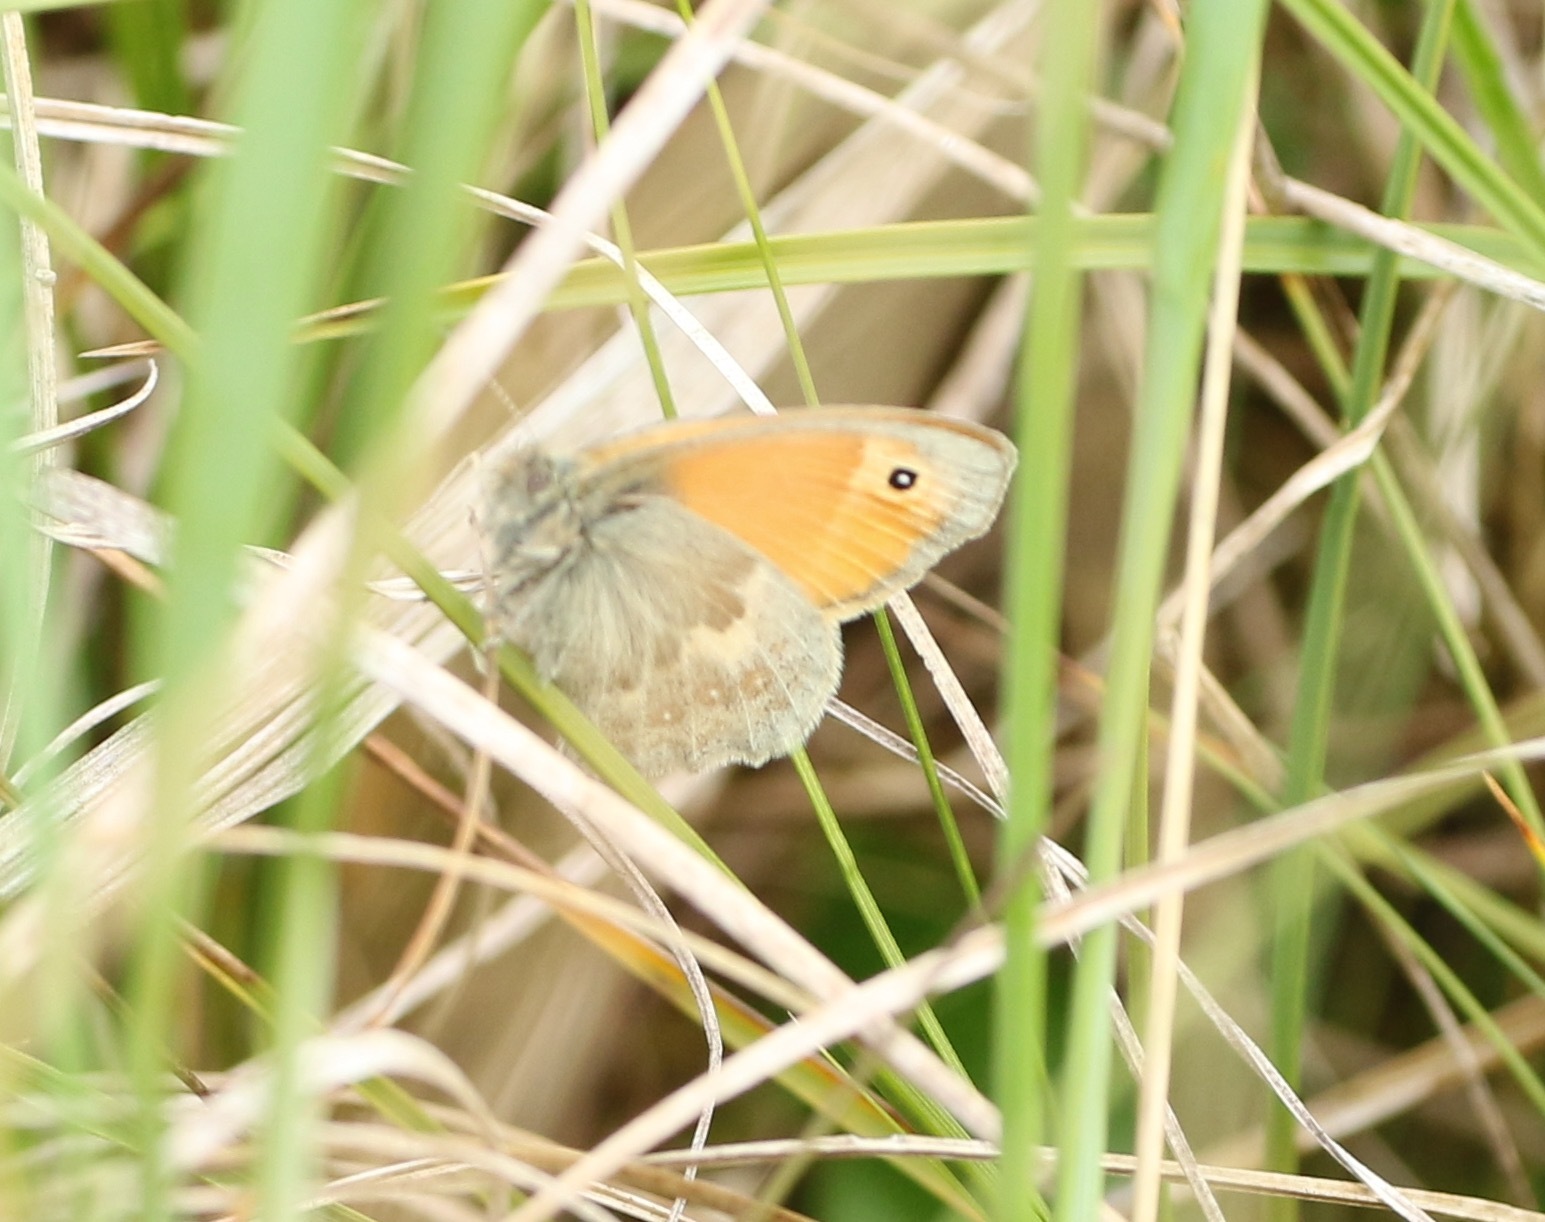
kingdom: Animalia
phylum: Arthropoda
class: Insecta
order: Lepidoptera
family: Nymphalidae
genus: Coenonympha
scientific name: Coenonympha pamphilus
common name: Small heath
